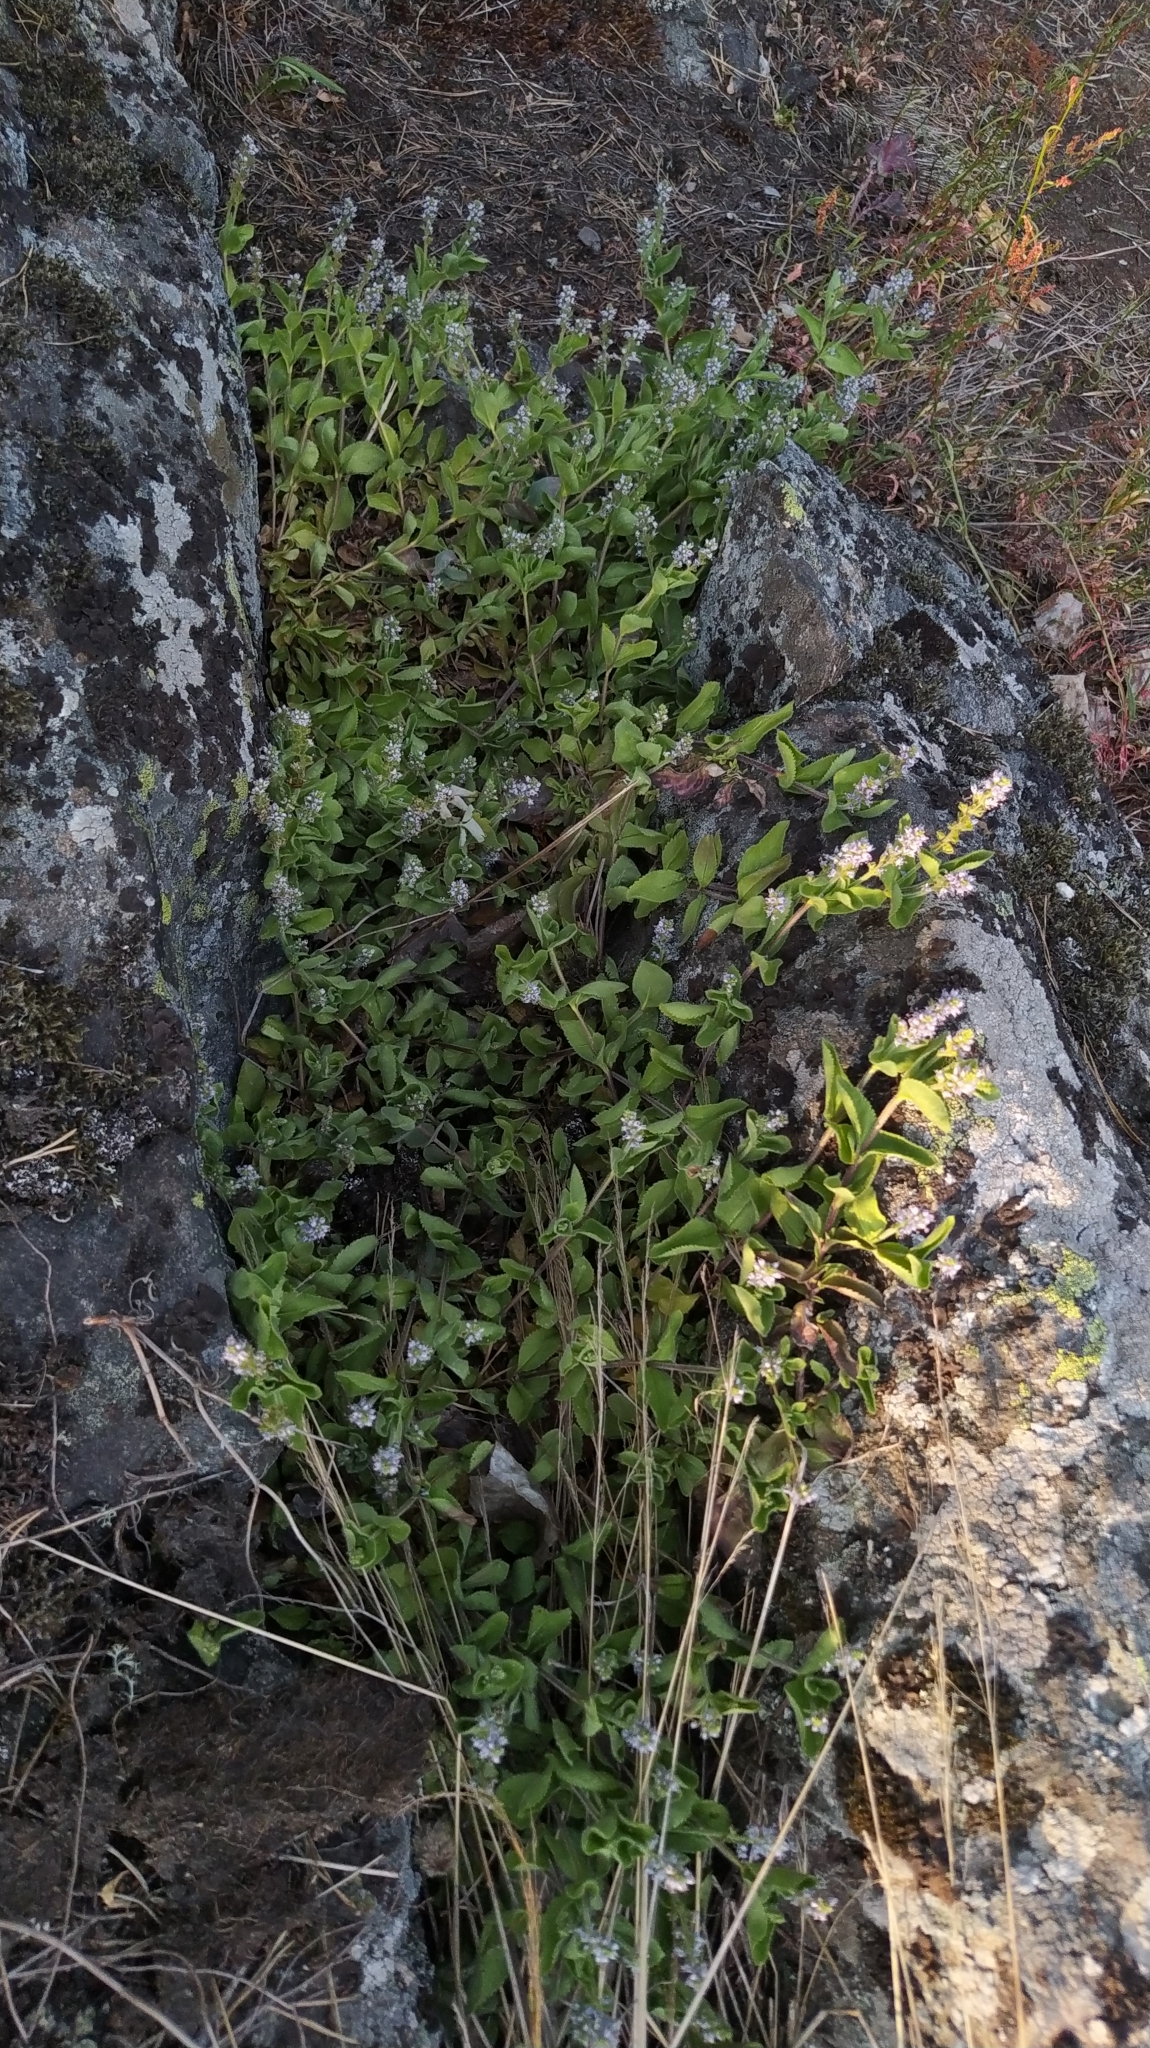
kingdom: Plantae
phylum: Tracheophyta
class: Magnoliopsida
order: Lamiales
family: Plantaginaceae
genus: Veronica
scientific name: Veronica officinalis
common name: Common speedwell
